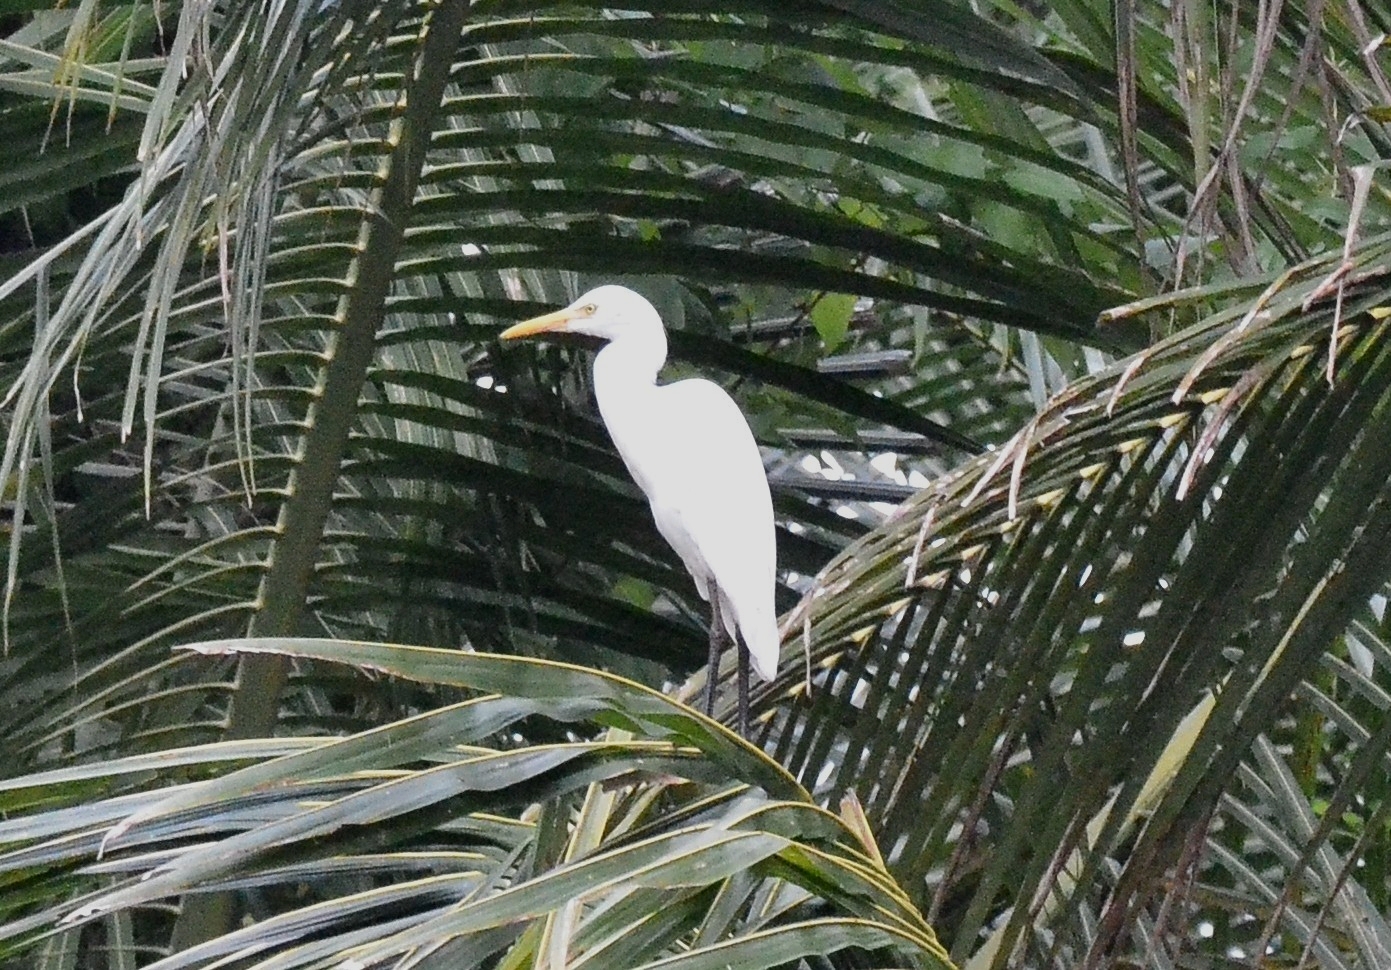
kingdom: Animalia
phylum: Chordata
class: Aves
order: Pelecaniformes
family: Ardeidae
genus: Bubulcus
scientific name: Bubulcus coromandus
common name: Eastern cattle egret
